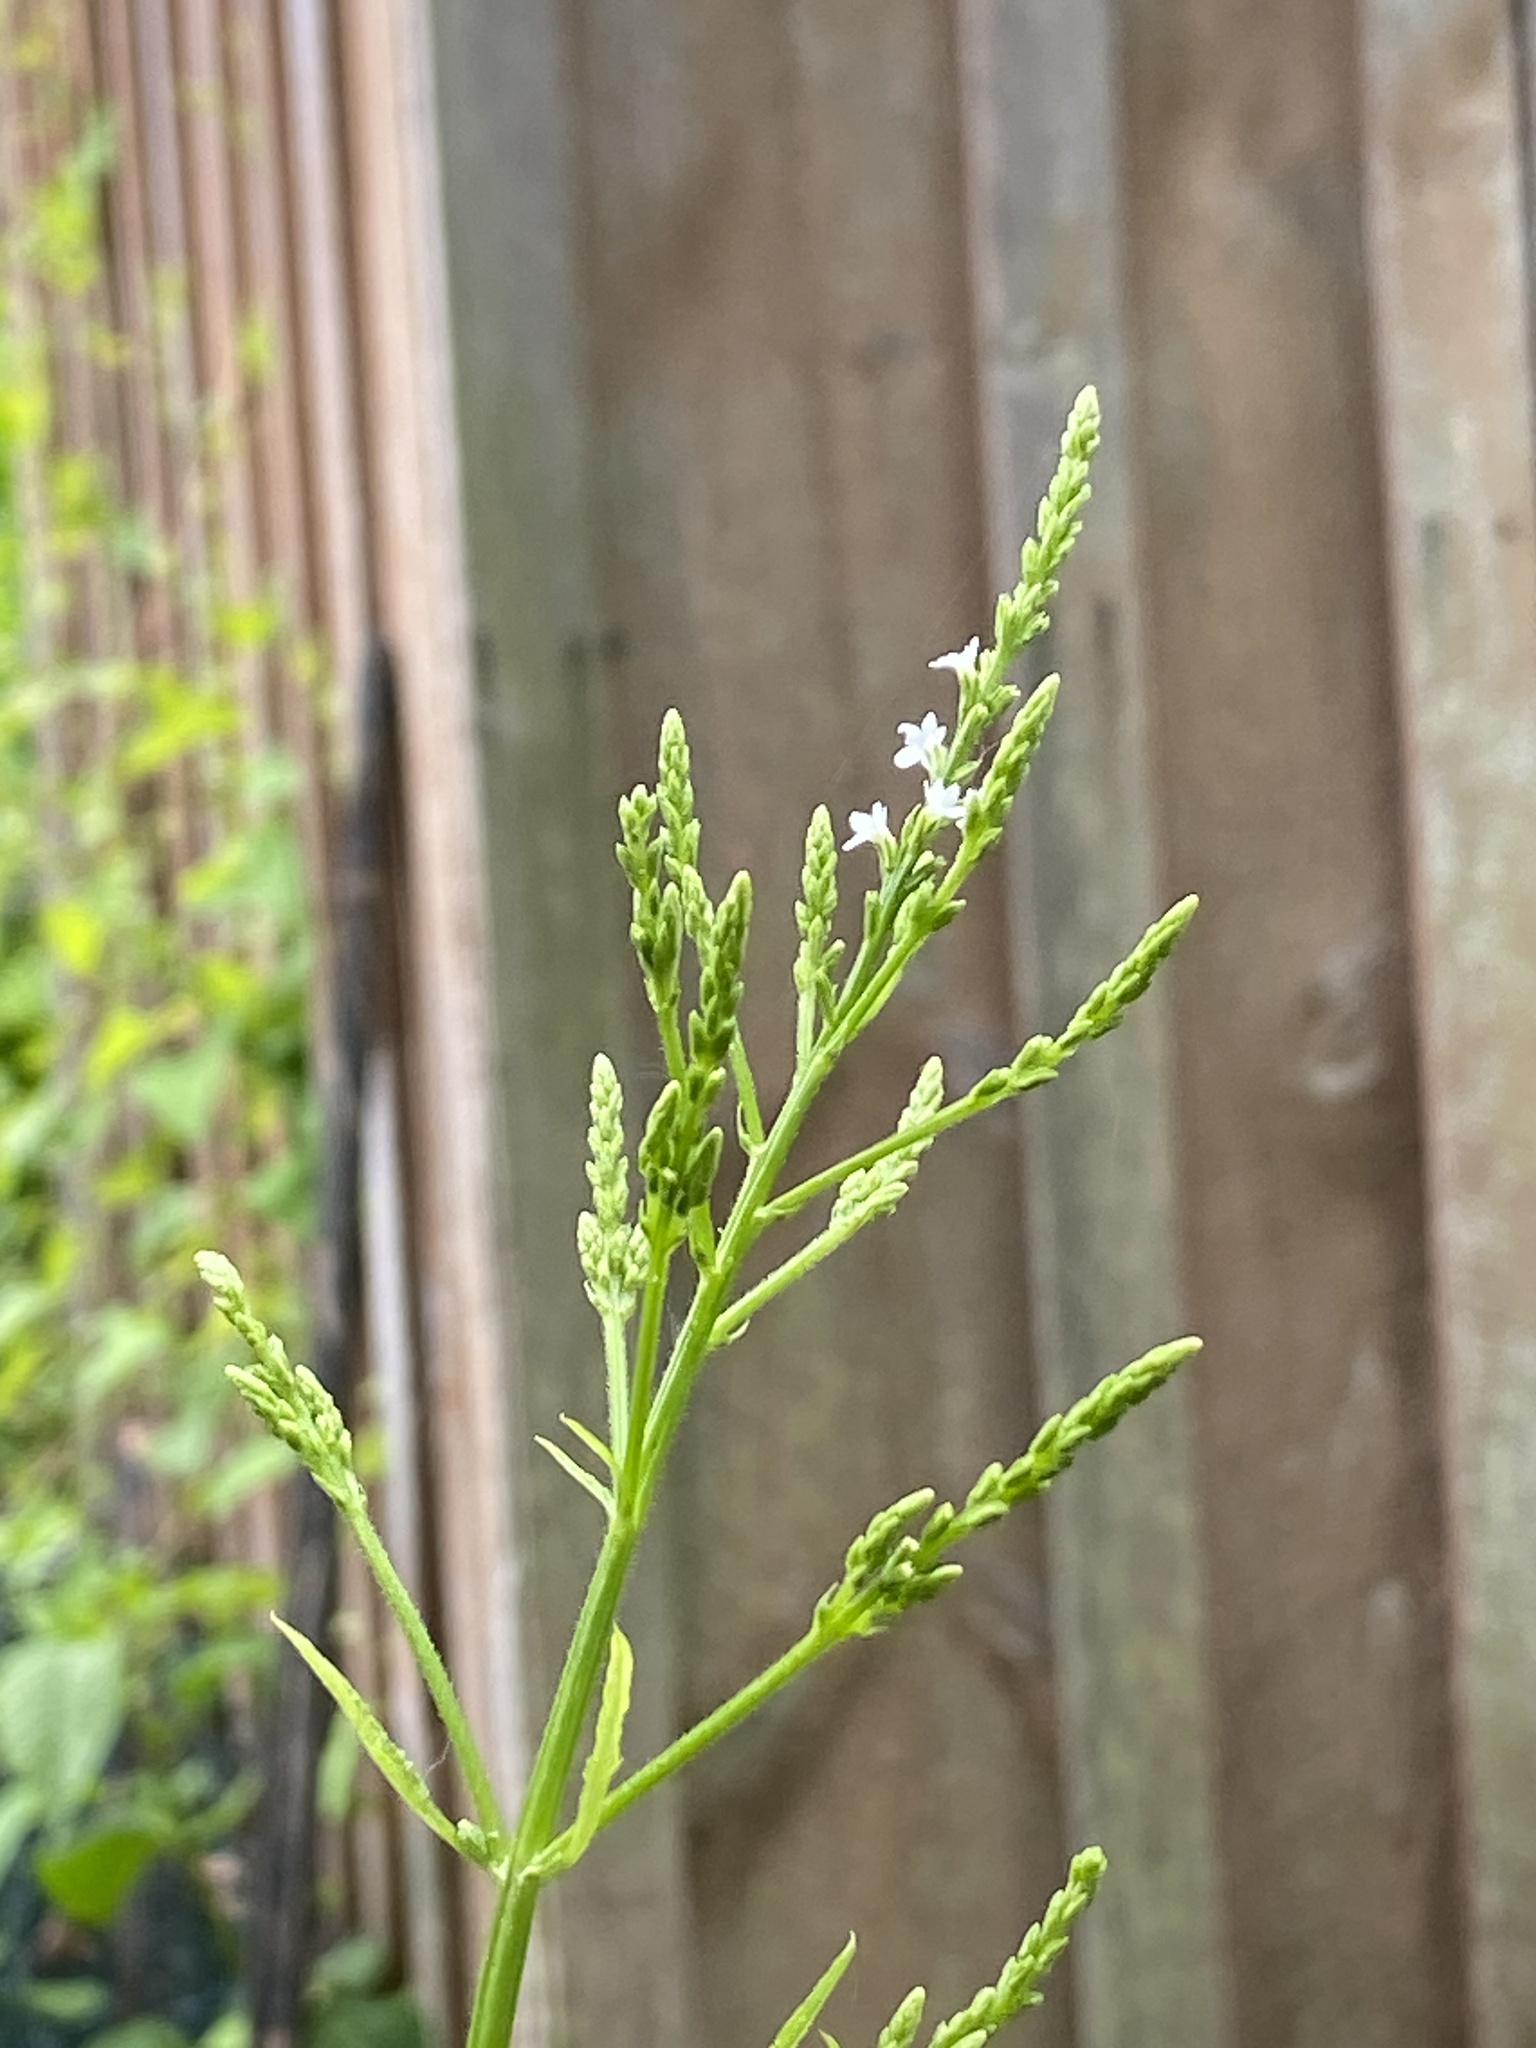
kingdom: Plantae
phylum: Tracheophyta
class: Magnoliopsida
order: Lamiales
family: Verbenaceae
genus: Verbena
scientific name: Verbena urticifolia
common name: Nettle-leaved vervain
